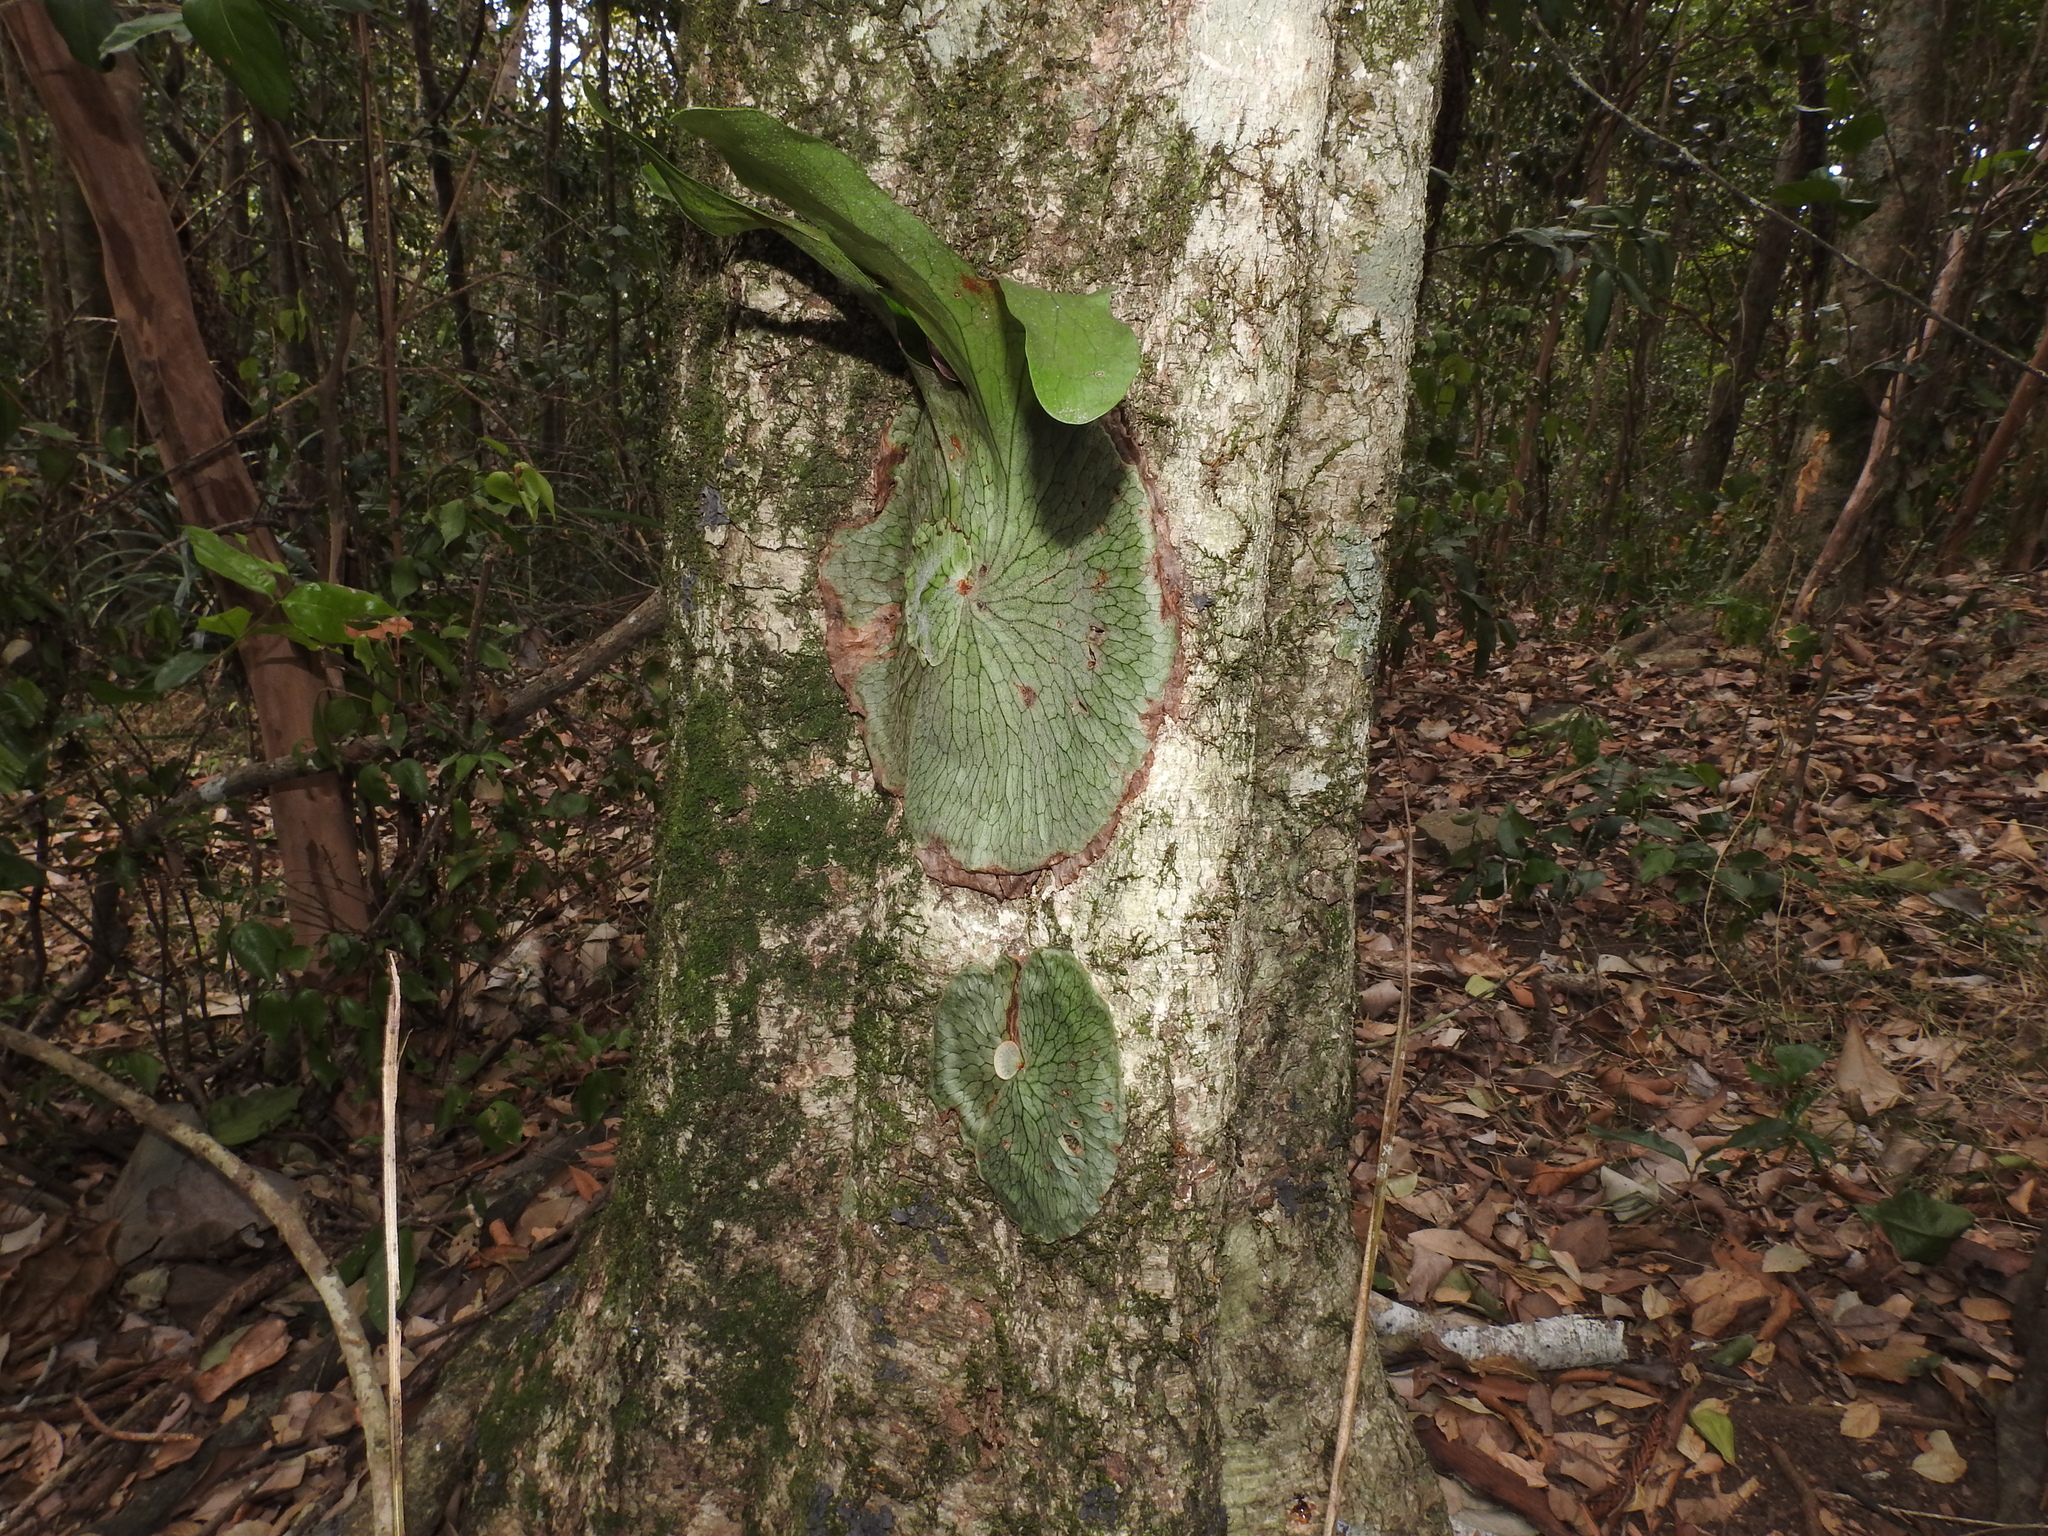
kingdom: Plantae
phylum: Tracheophyta
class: Polypodiopsida
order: Polypodiales
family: Polypodiaceae
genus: Platycerium
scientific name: Platycerium superbum
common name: Staghorn fern
